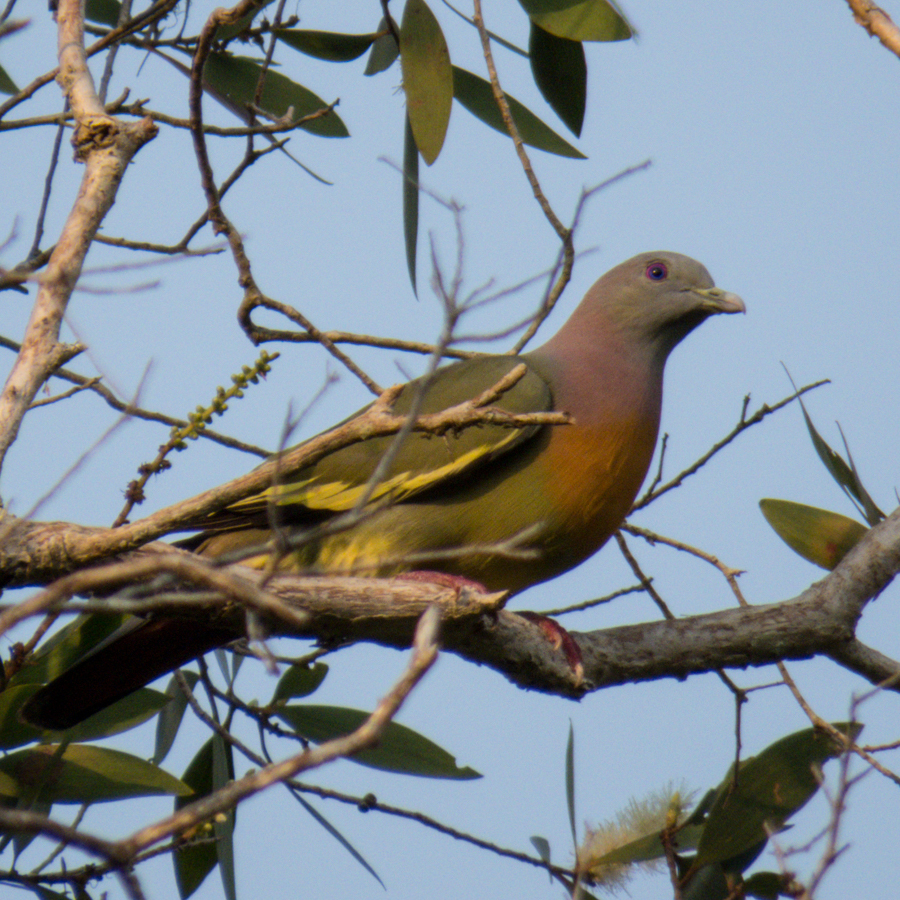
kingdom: Animalia
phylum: Chordata
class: Aves
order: Columbiformes
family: Columbidae
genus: Treron
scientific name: Treron vernans
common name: Pink-necked green pigeon
